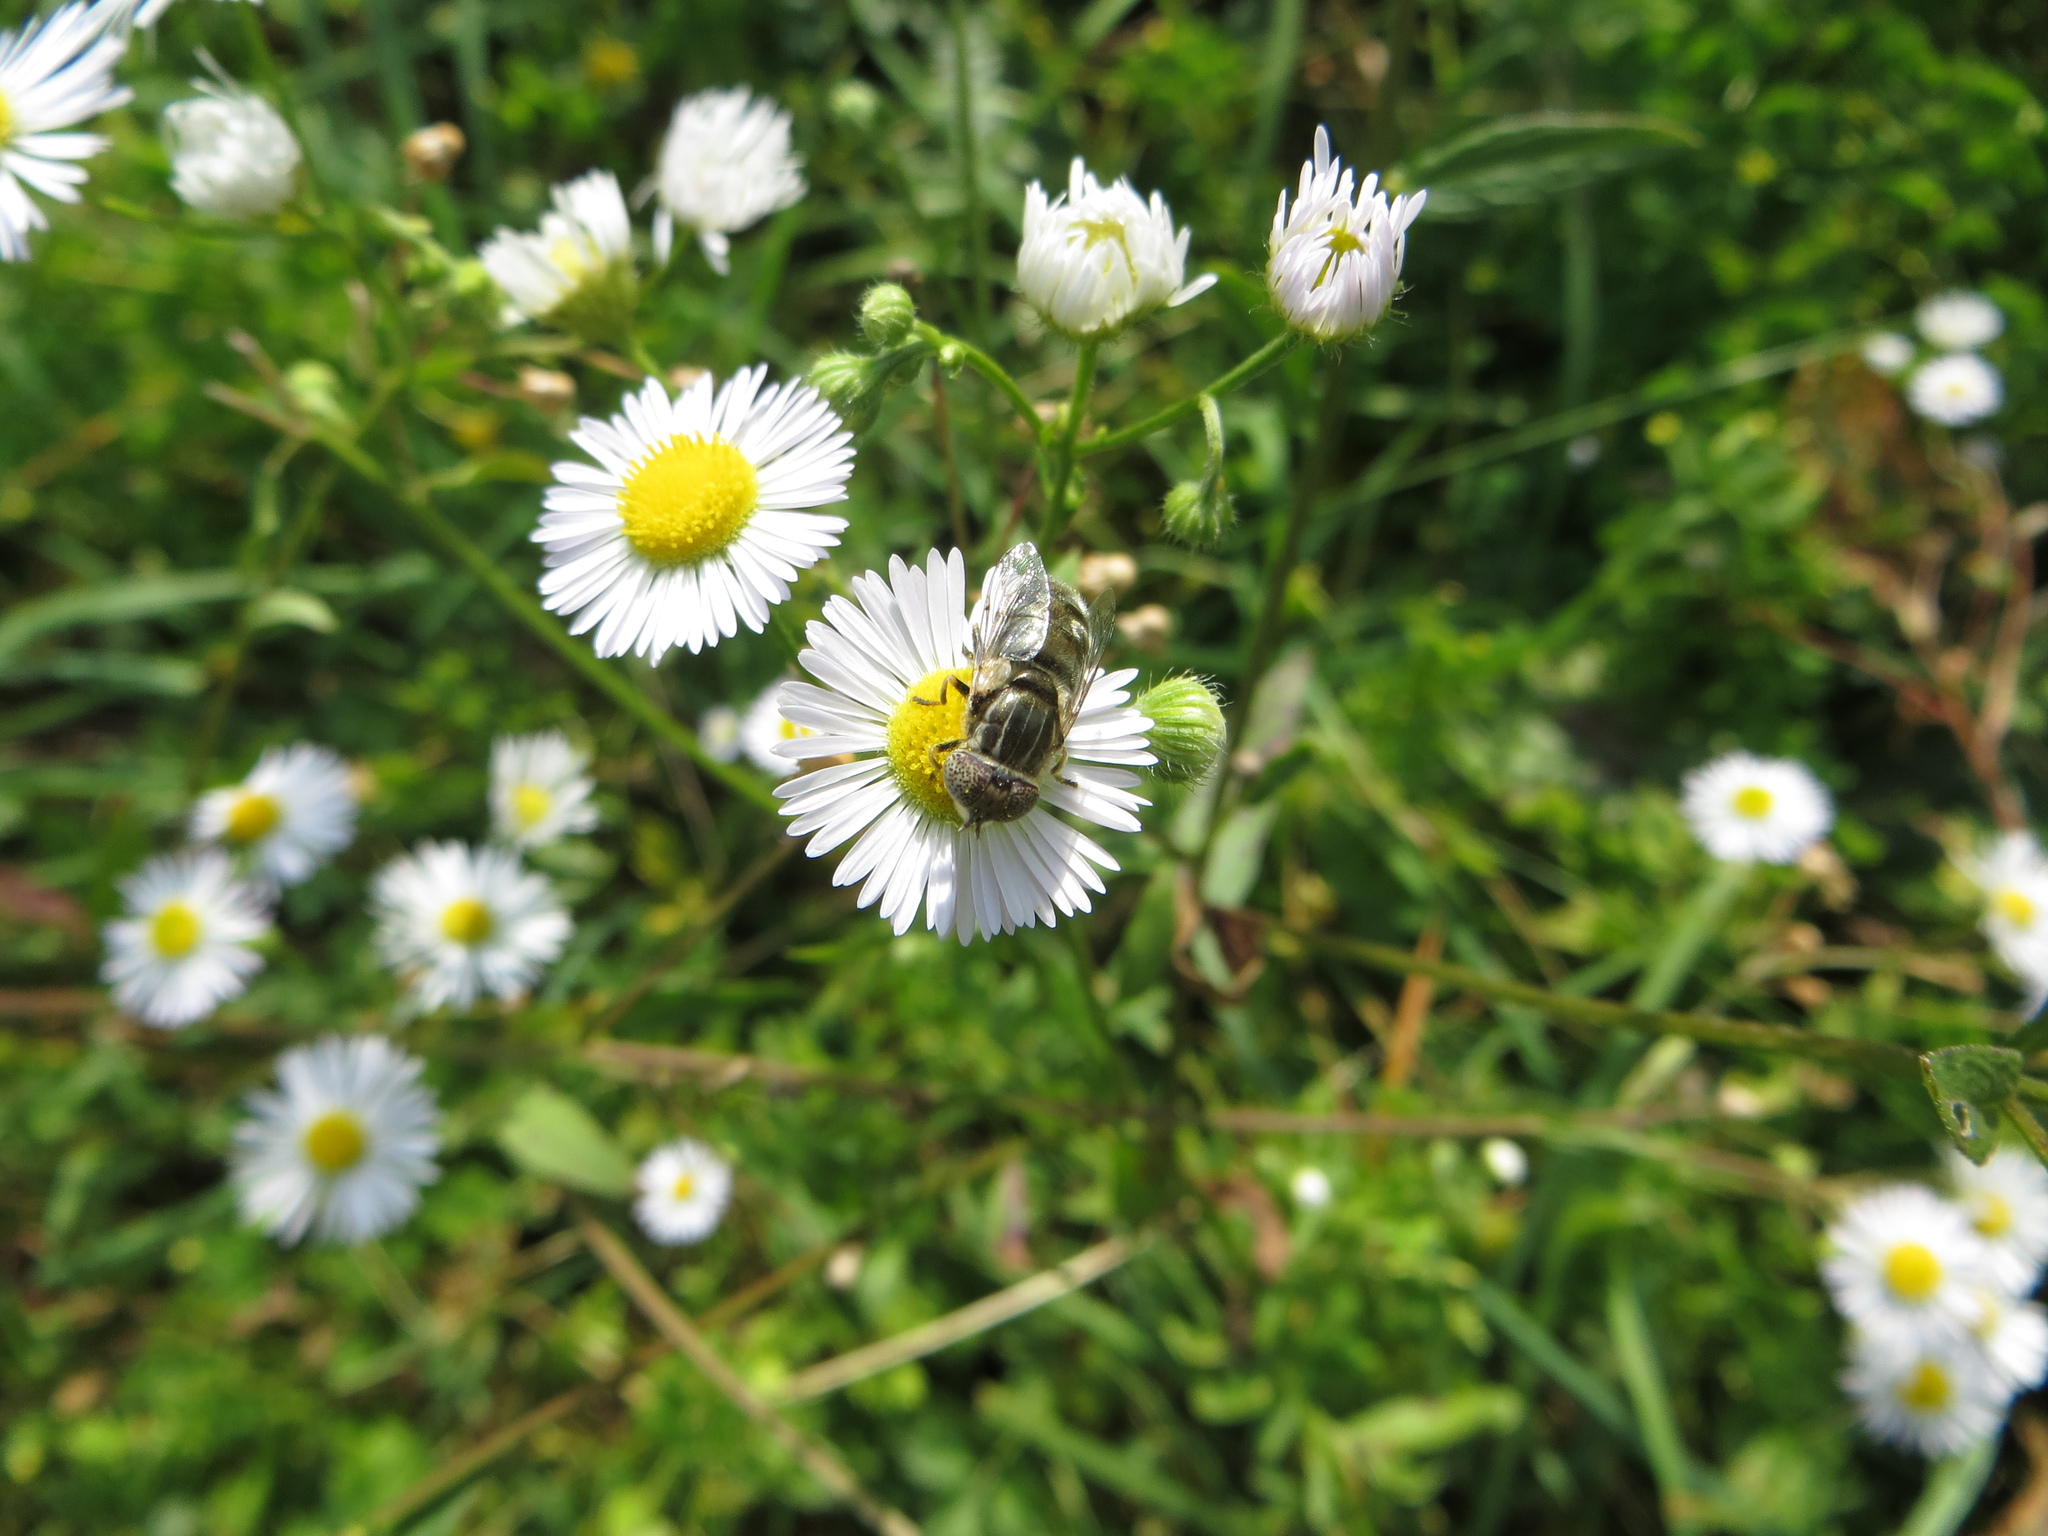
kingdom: Animalia
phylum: Arthropoda
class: Insecta
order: Diptera
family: Syrphidae
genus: Eristalinus
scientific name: Eristalinus aeneus
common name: Syrphid fly
